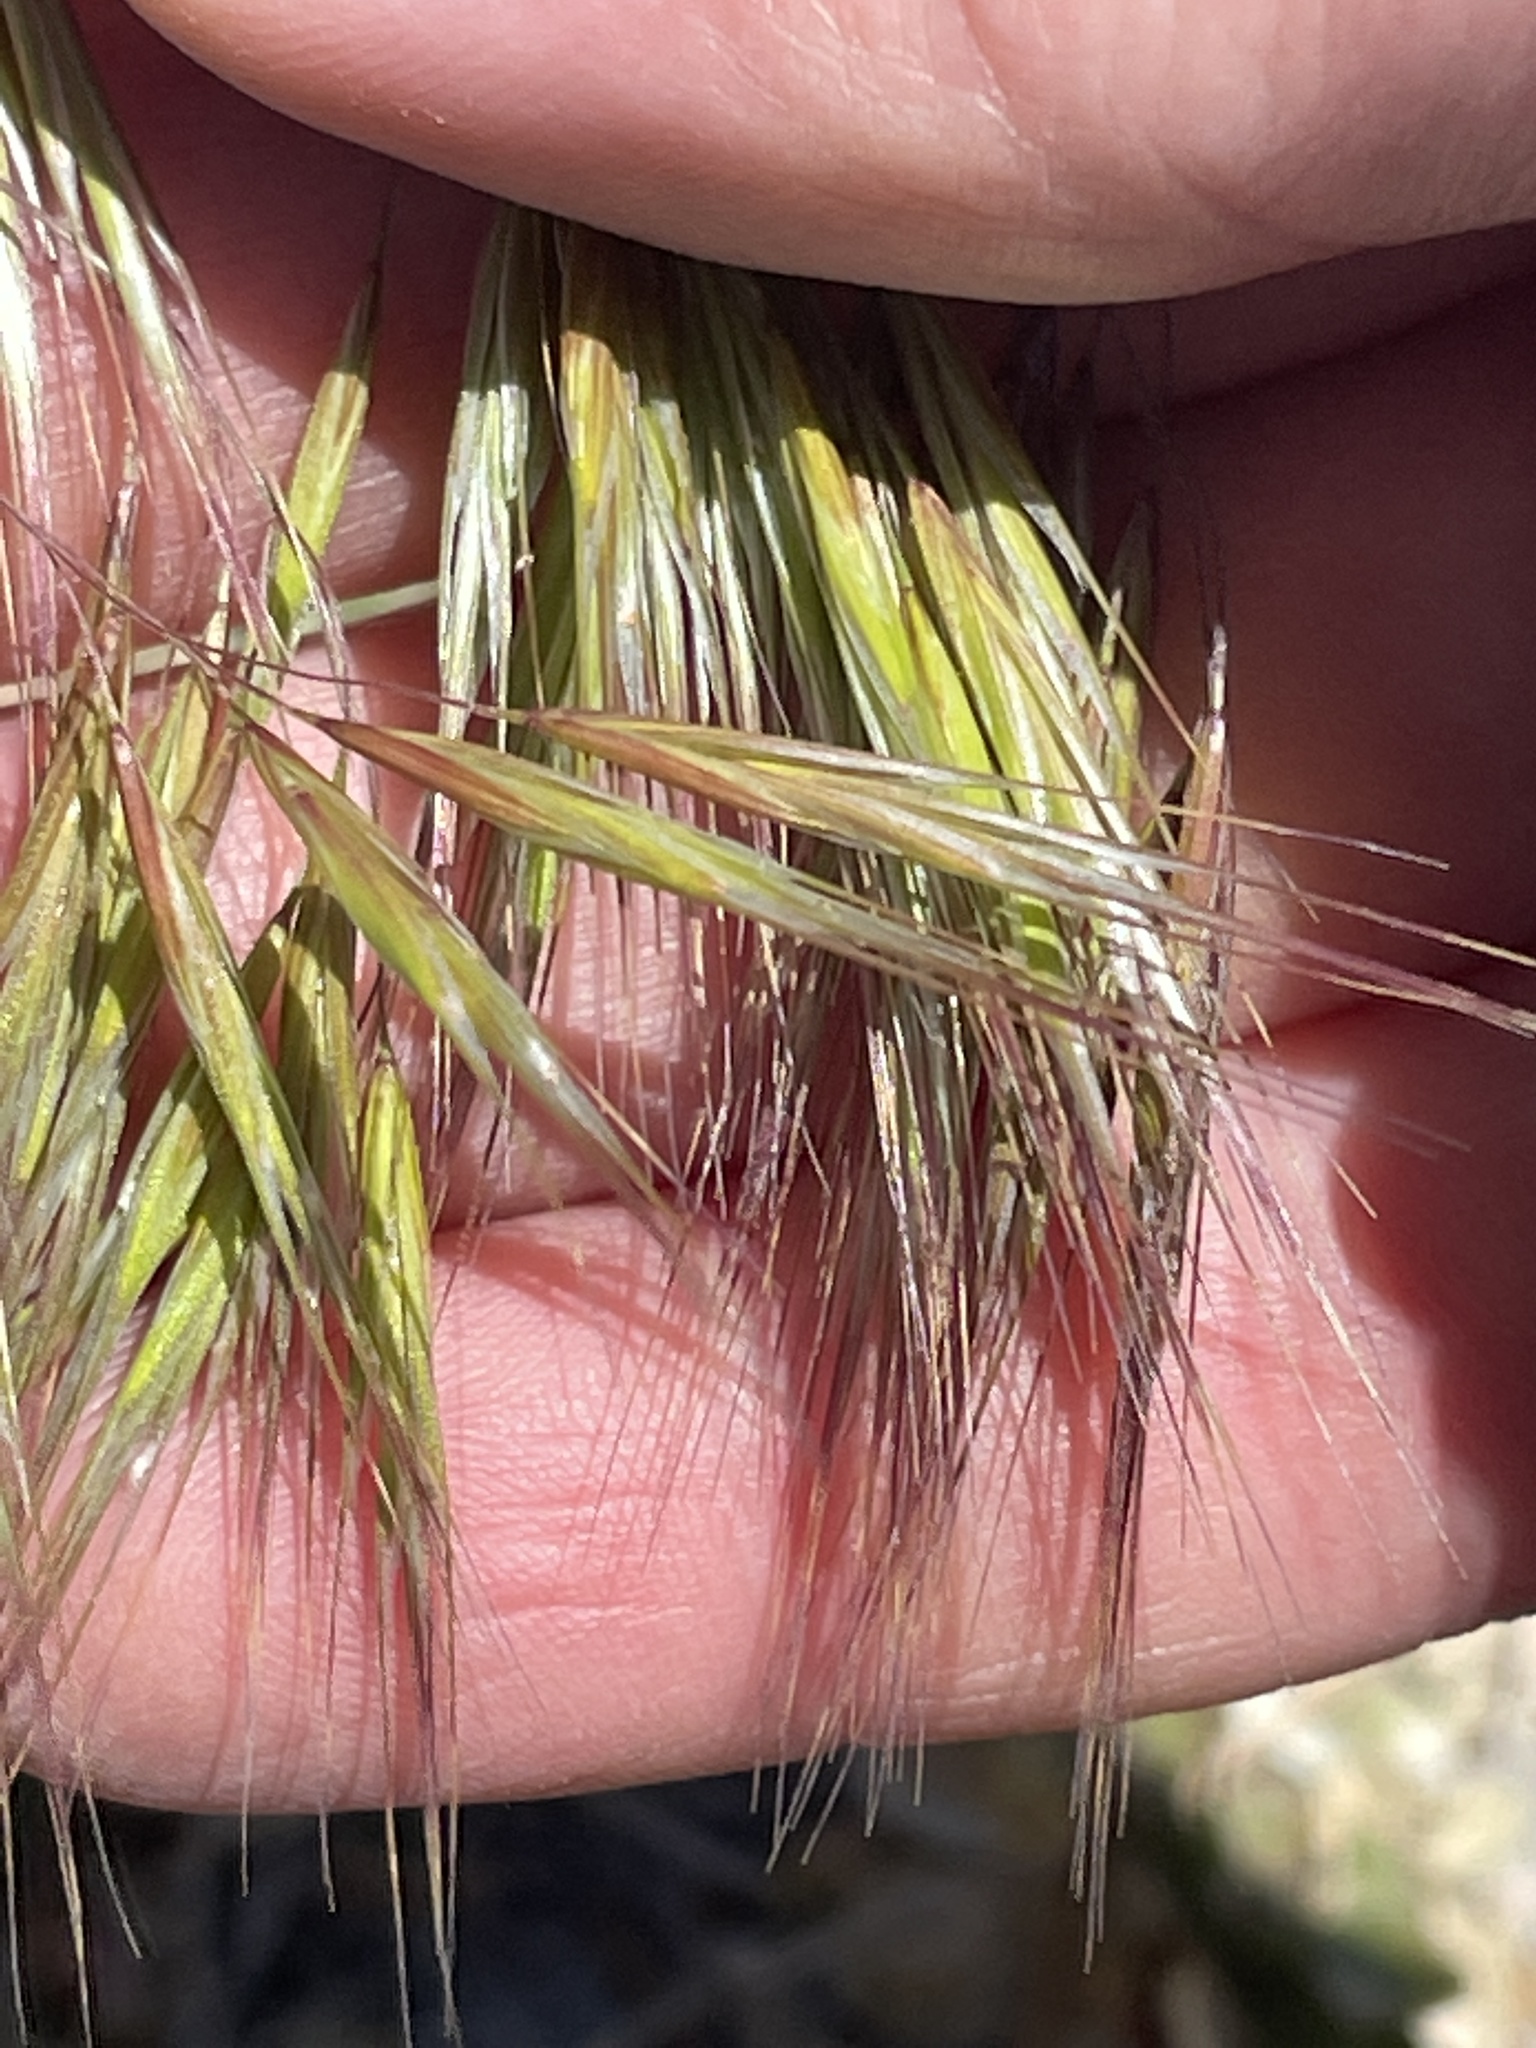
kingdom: Plantae
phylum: Tracheophyta
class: Liliopsida
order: Poales
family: Poaceae
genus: Bromus
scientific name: Bromus tectorum
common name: Cheatgrass
